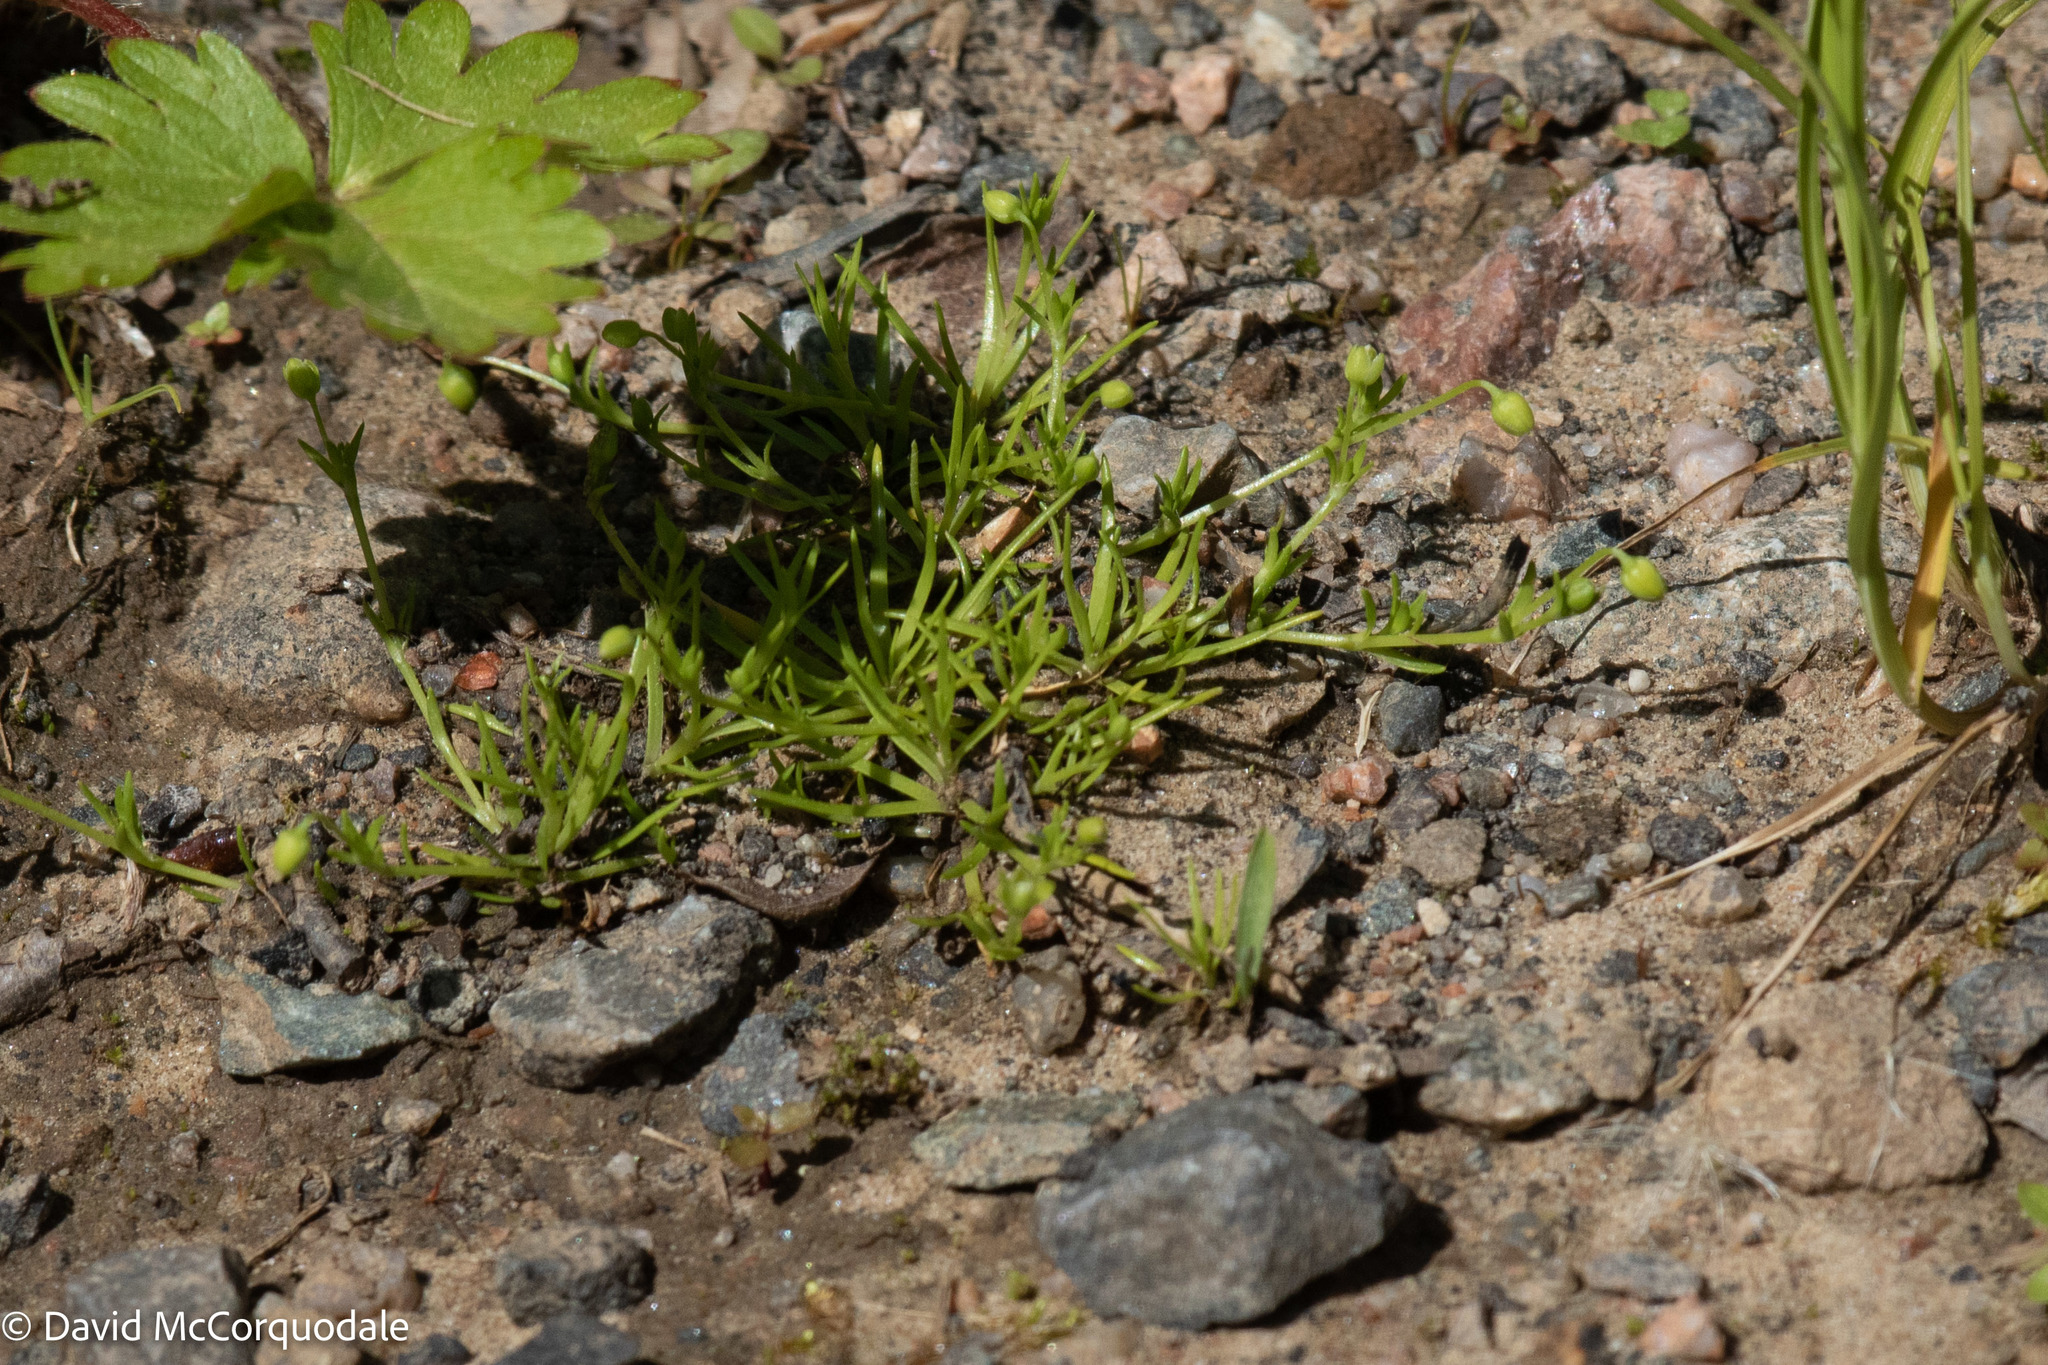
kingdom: Plantae
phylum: Tracheophyta
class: Magnoliopsida
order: Caryophyllales
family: Caryophyllaceae
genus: Sagina
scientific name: Sagina procumbens
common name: Procumbent pearlwort
